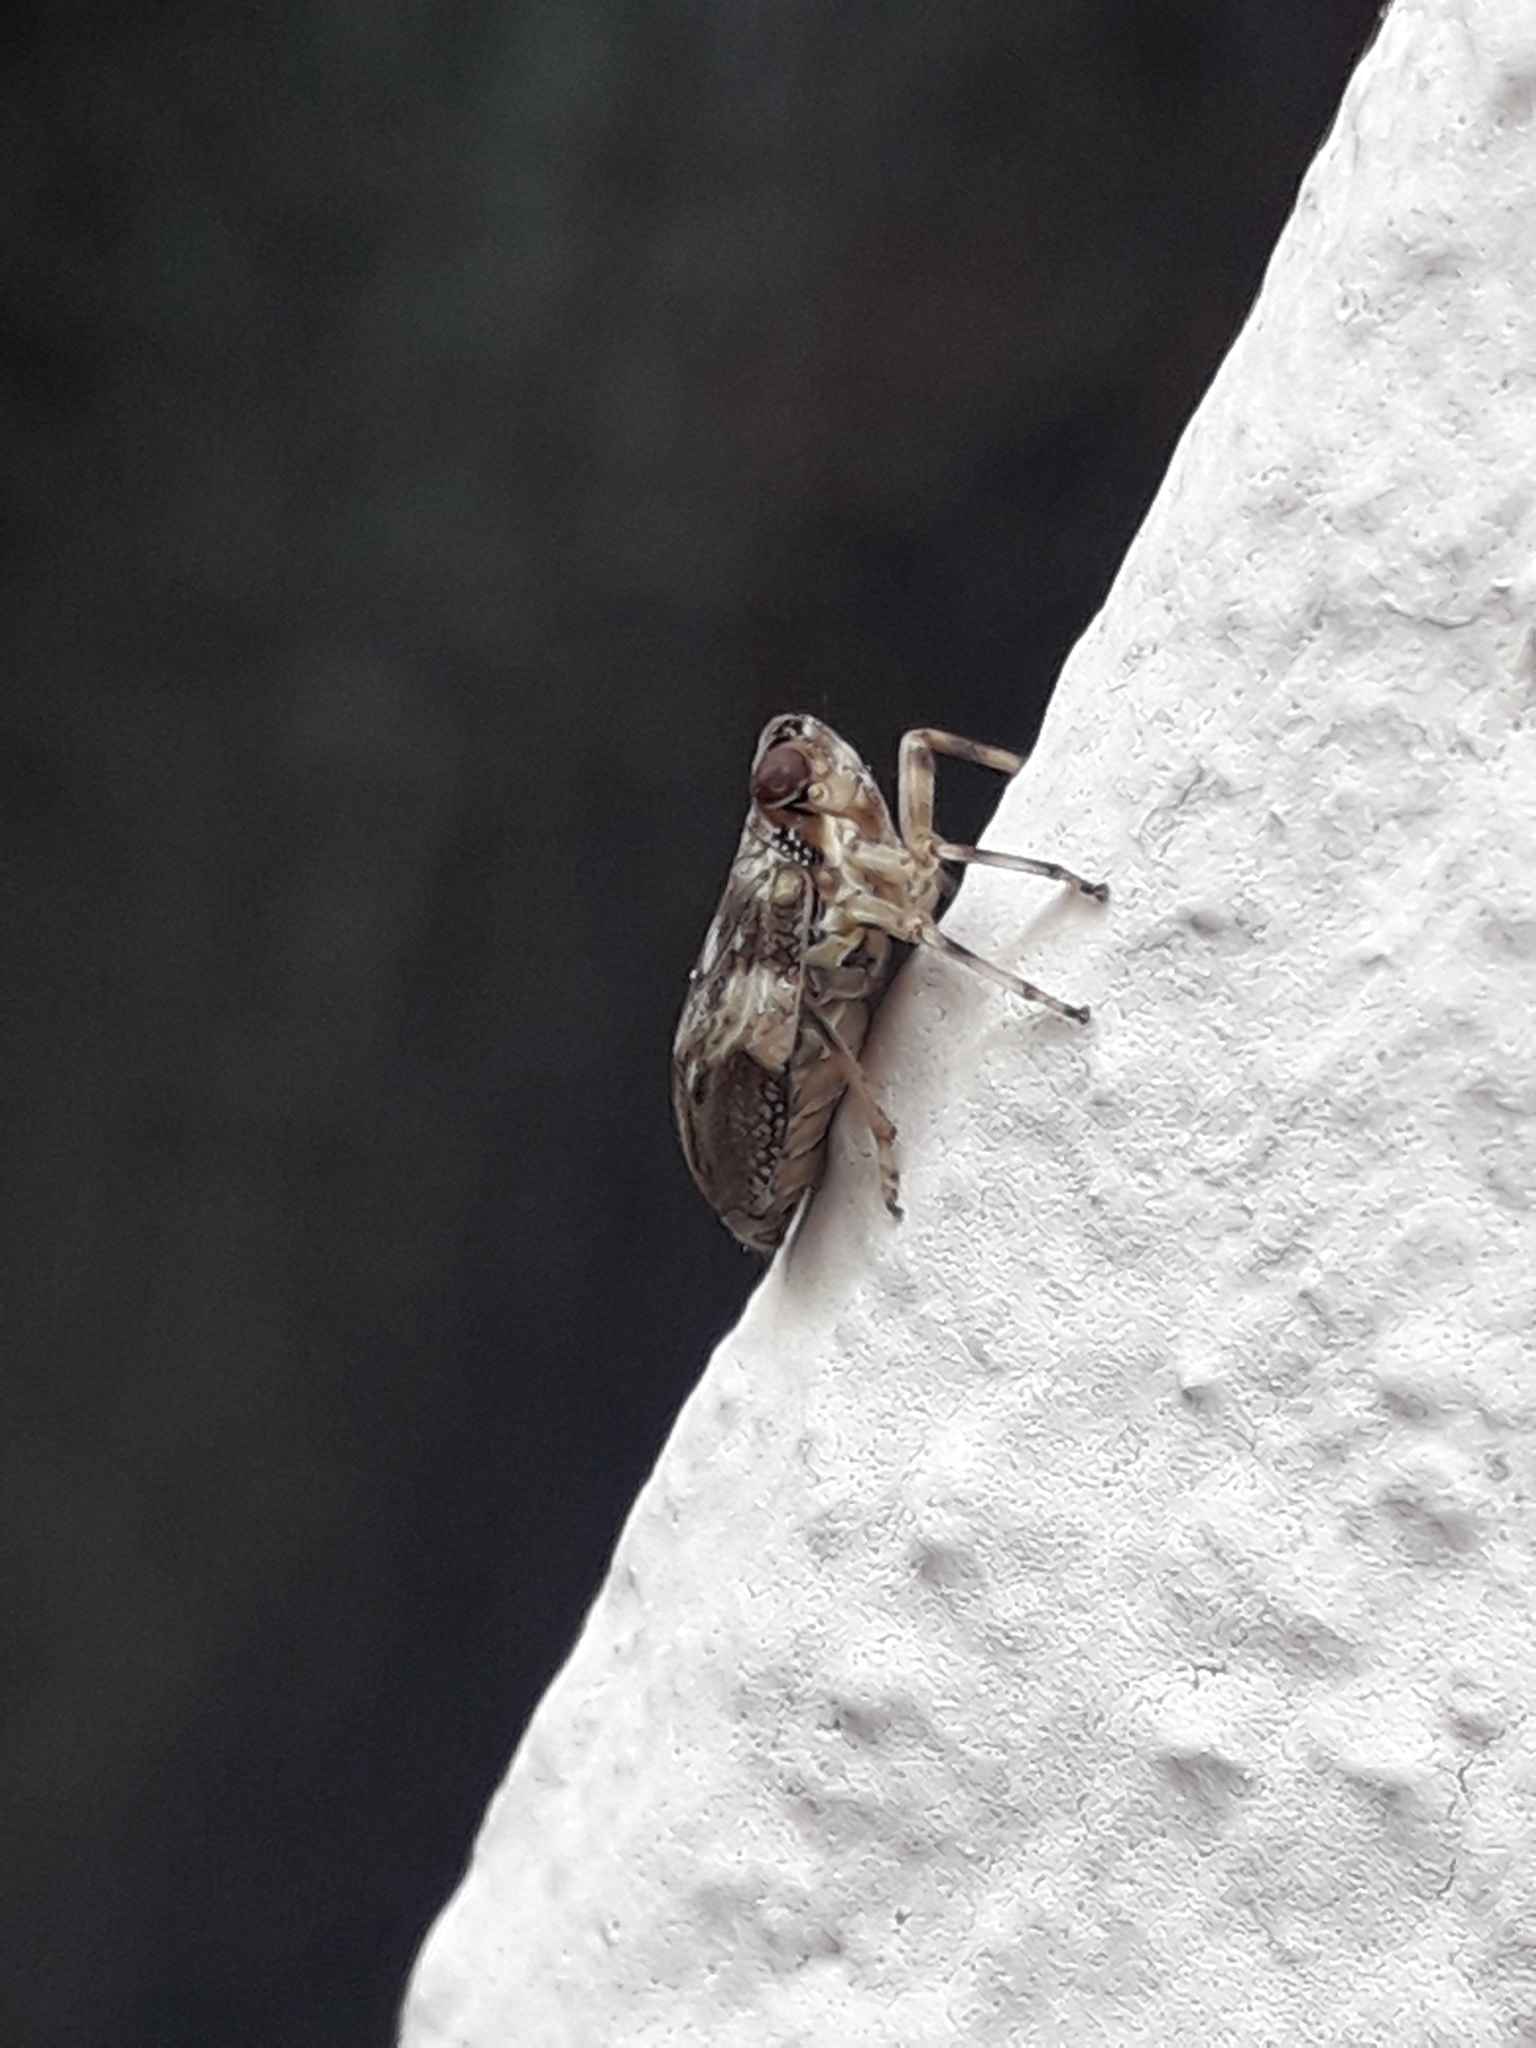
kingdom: Animalia
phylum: Arthropoda
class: Insecta
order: Hemiptera
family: Issidae
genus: Issus
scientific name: Issus coleoptratus
